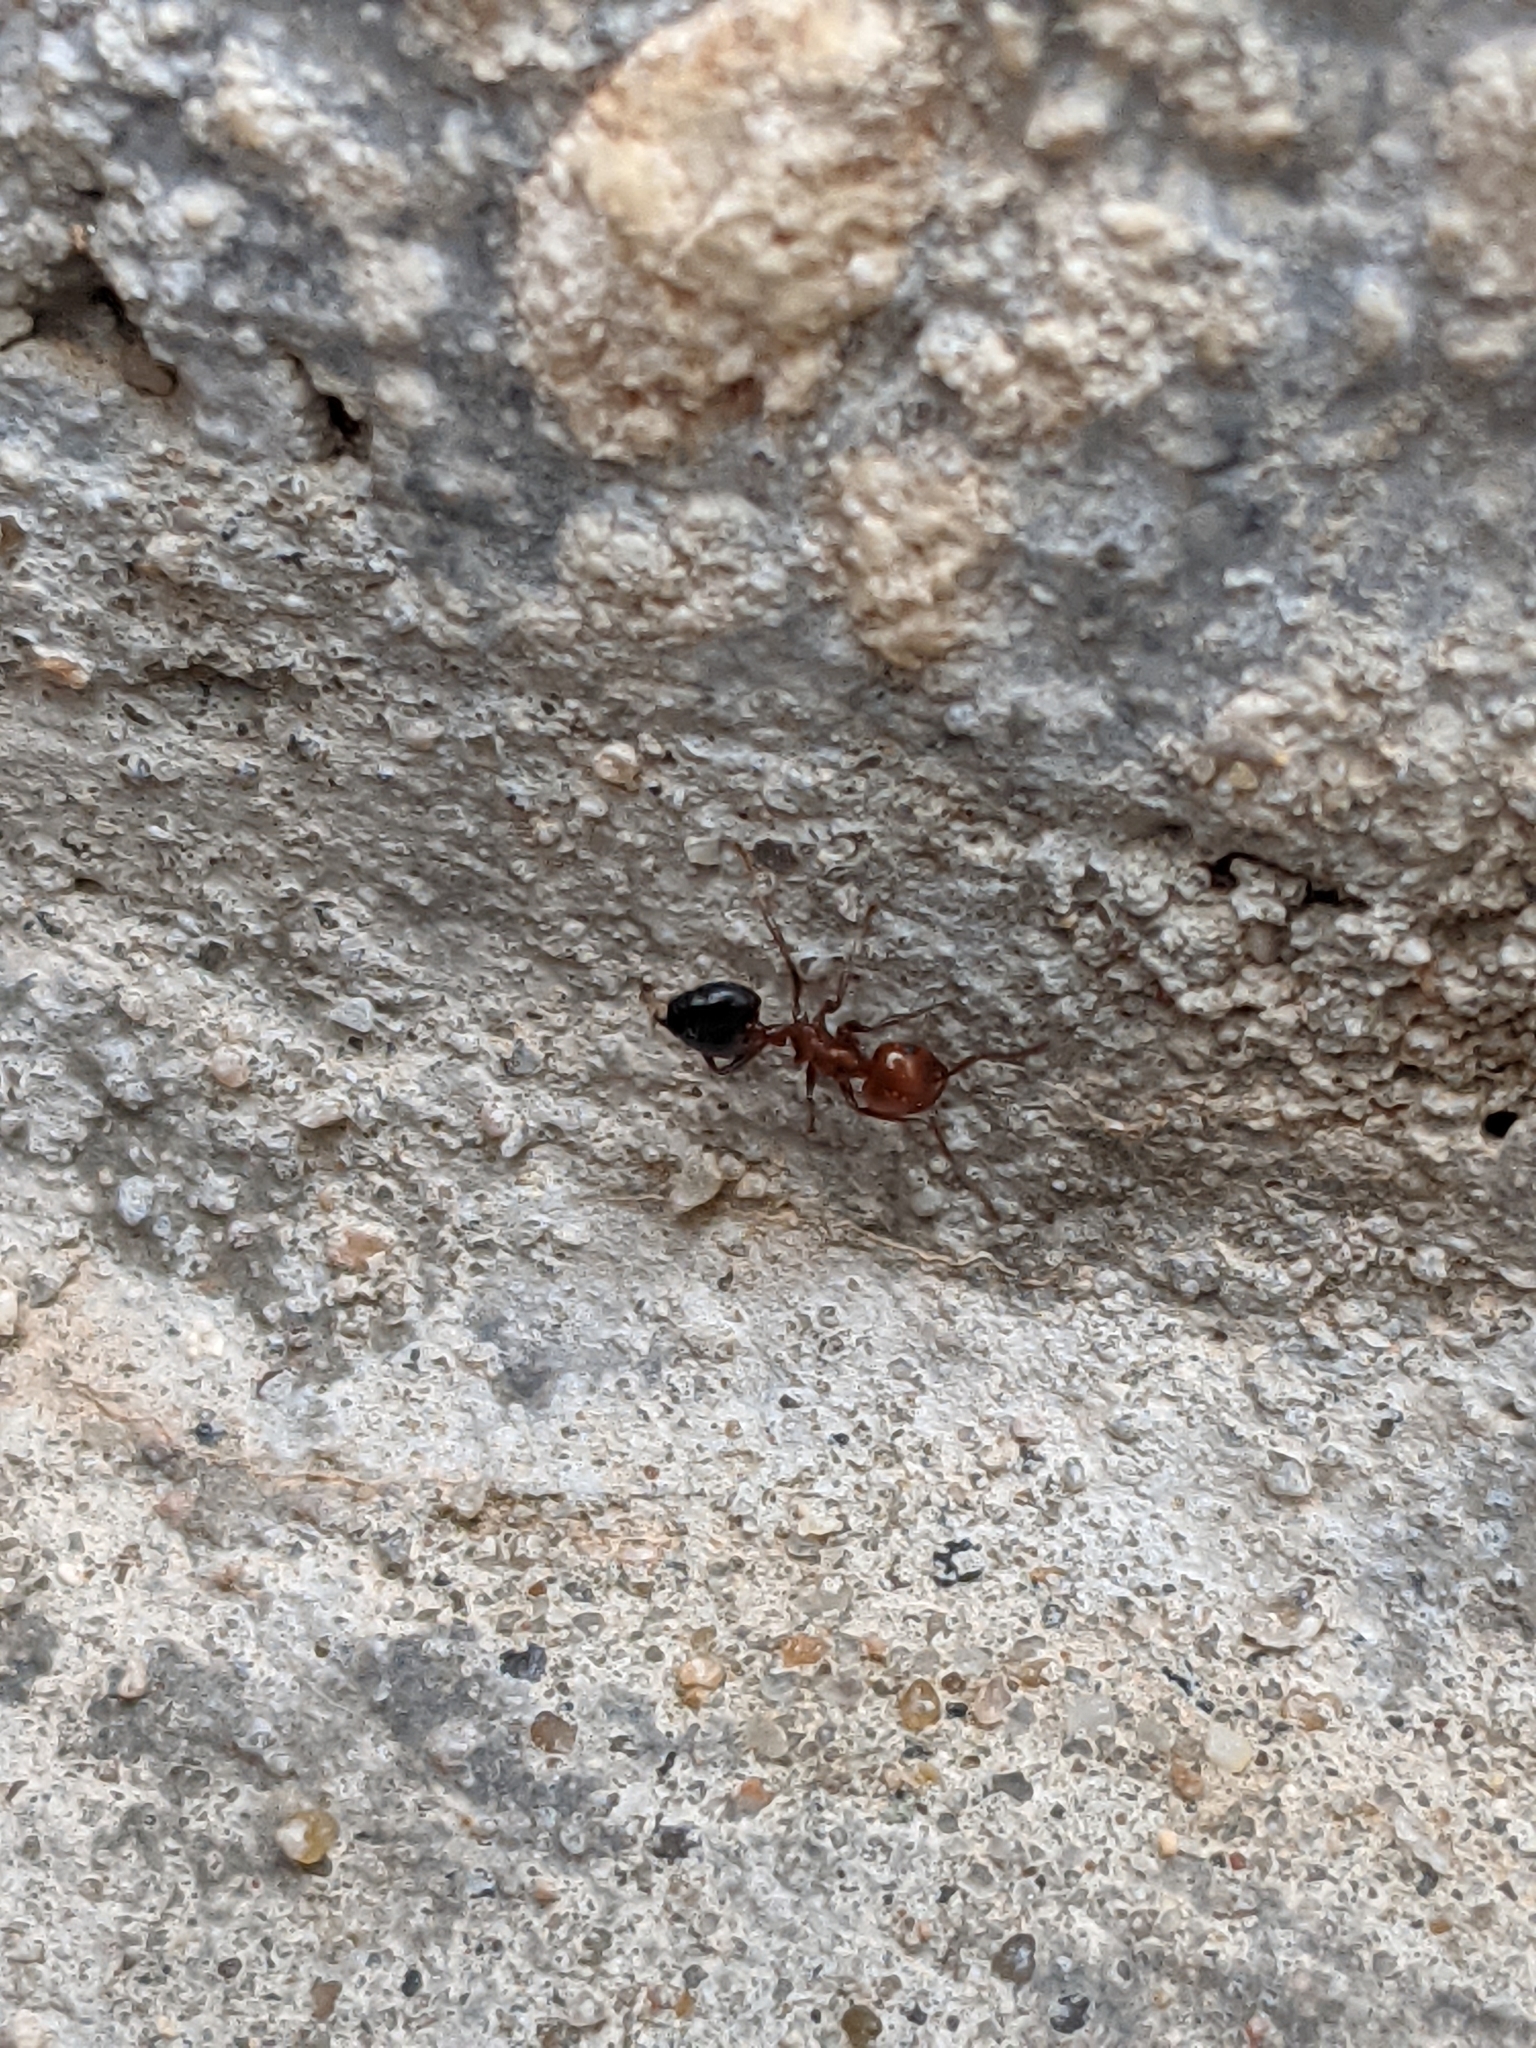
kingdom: Animalia
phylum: Arthropoda
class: Insecta
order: Hymenoptera
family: Formicidae
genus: Crematogaster
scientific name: Crematogaster laeviuscula
